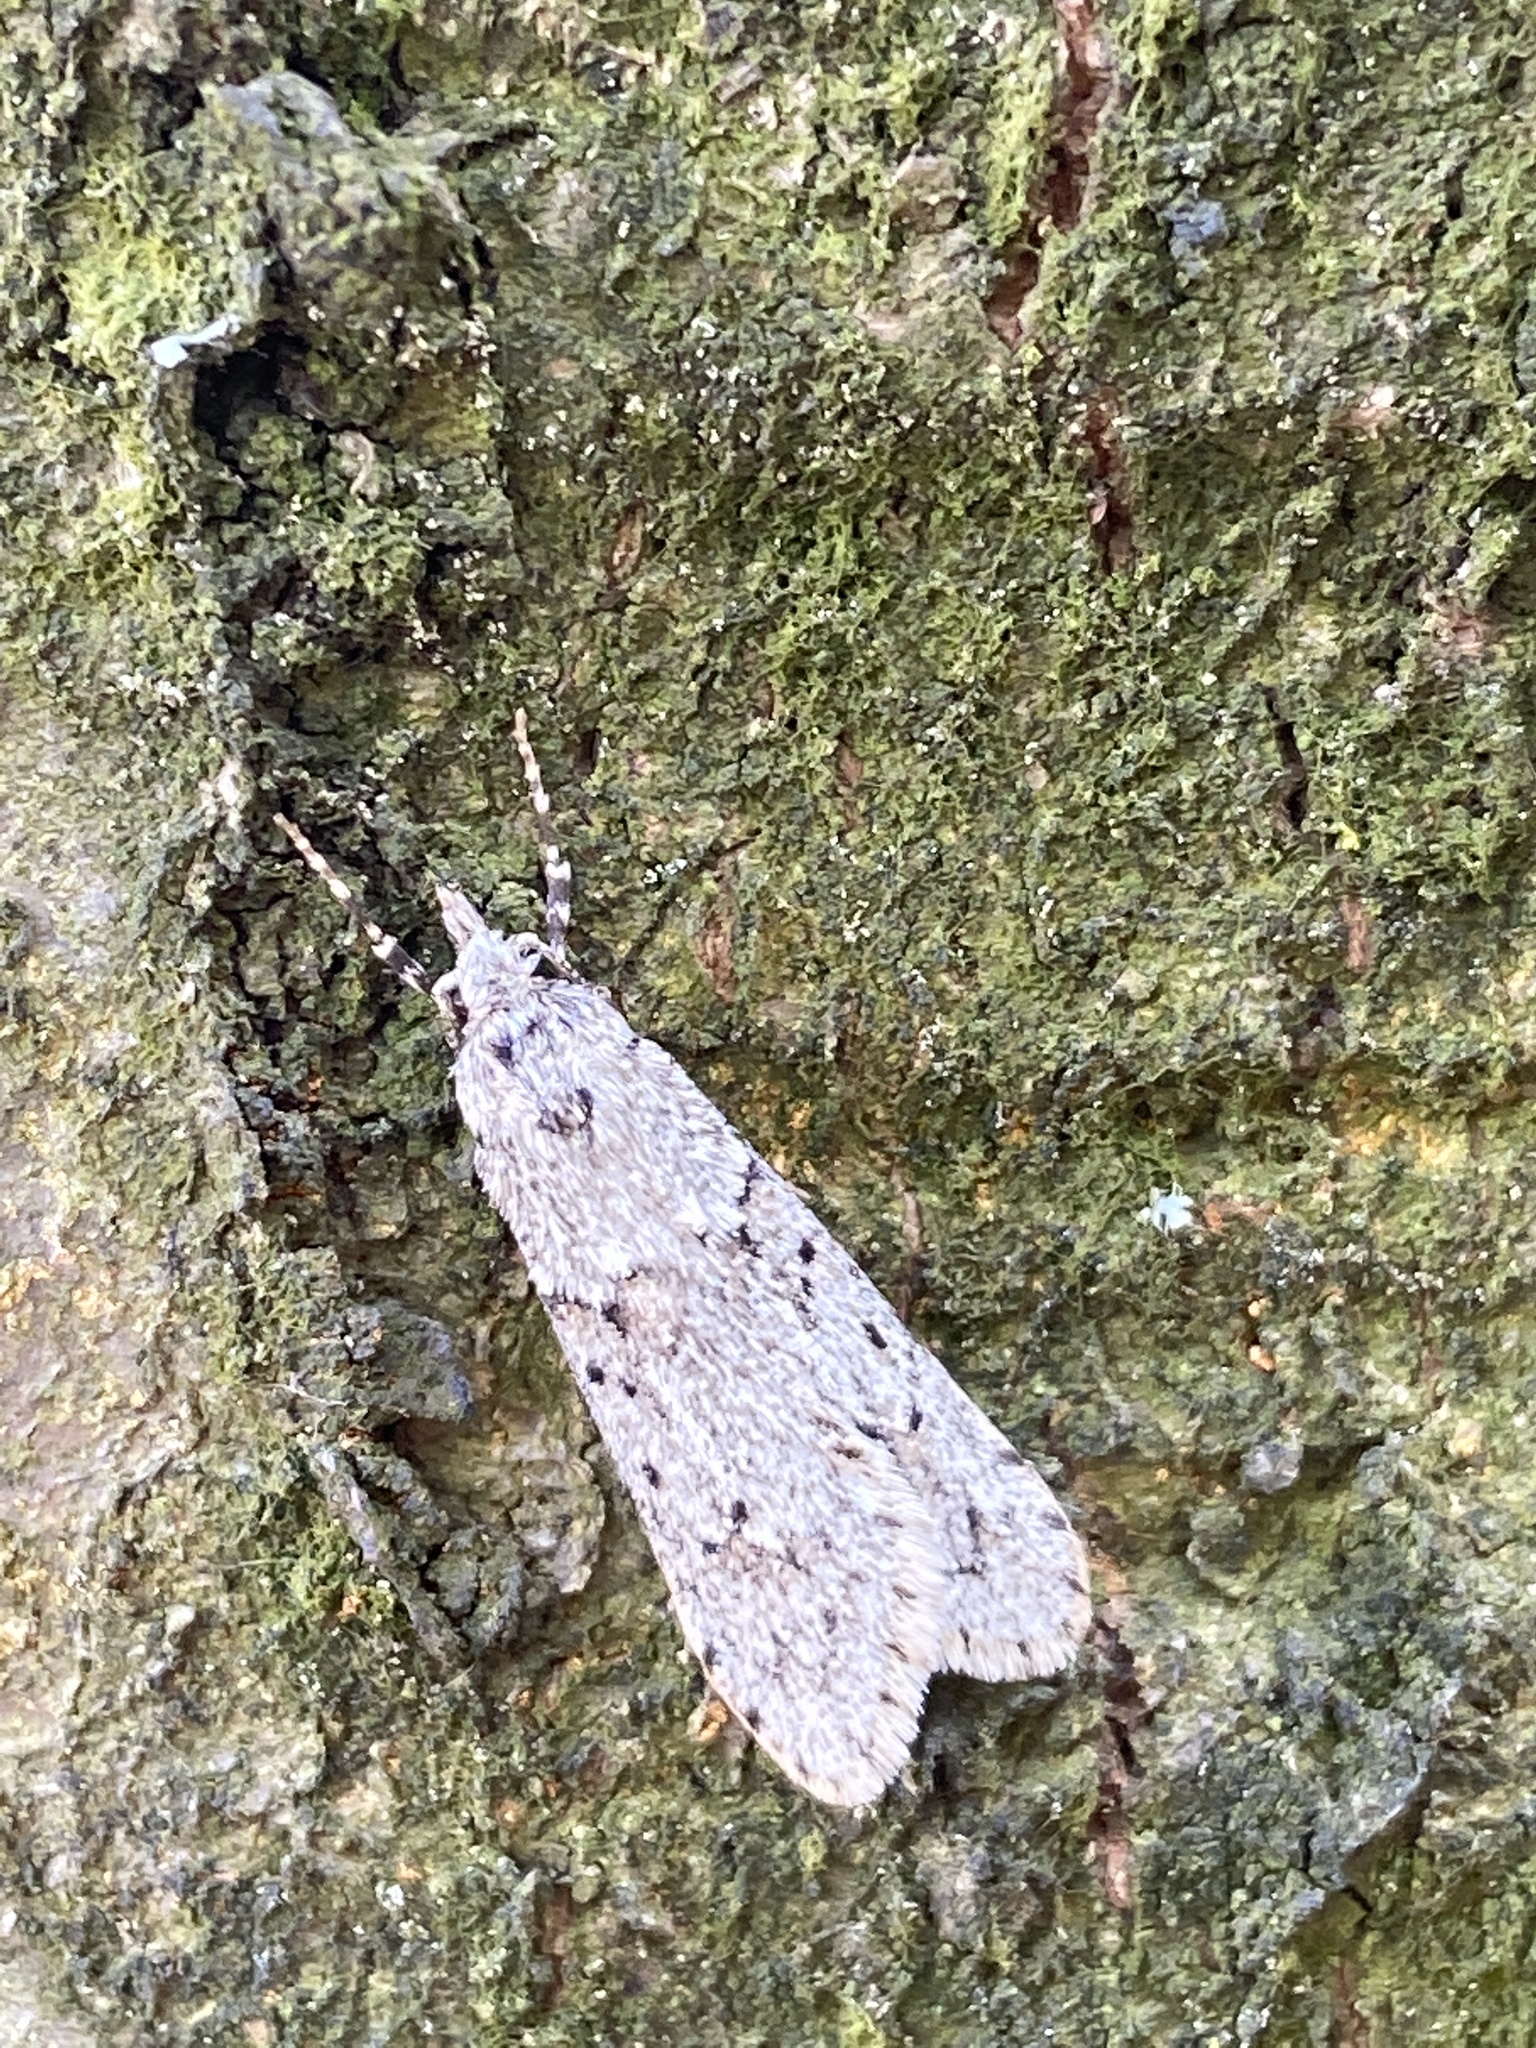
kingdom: Animalia
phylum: Arthropoda
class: Insecta
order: Lepidoptera
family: Lypusidae
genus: Diurnea
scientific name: Diurnea fagella
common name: March tubic
